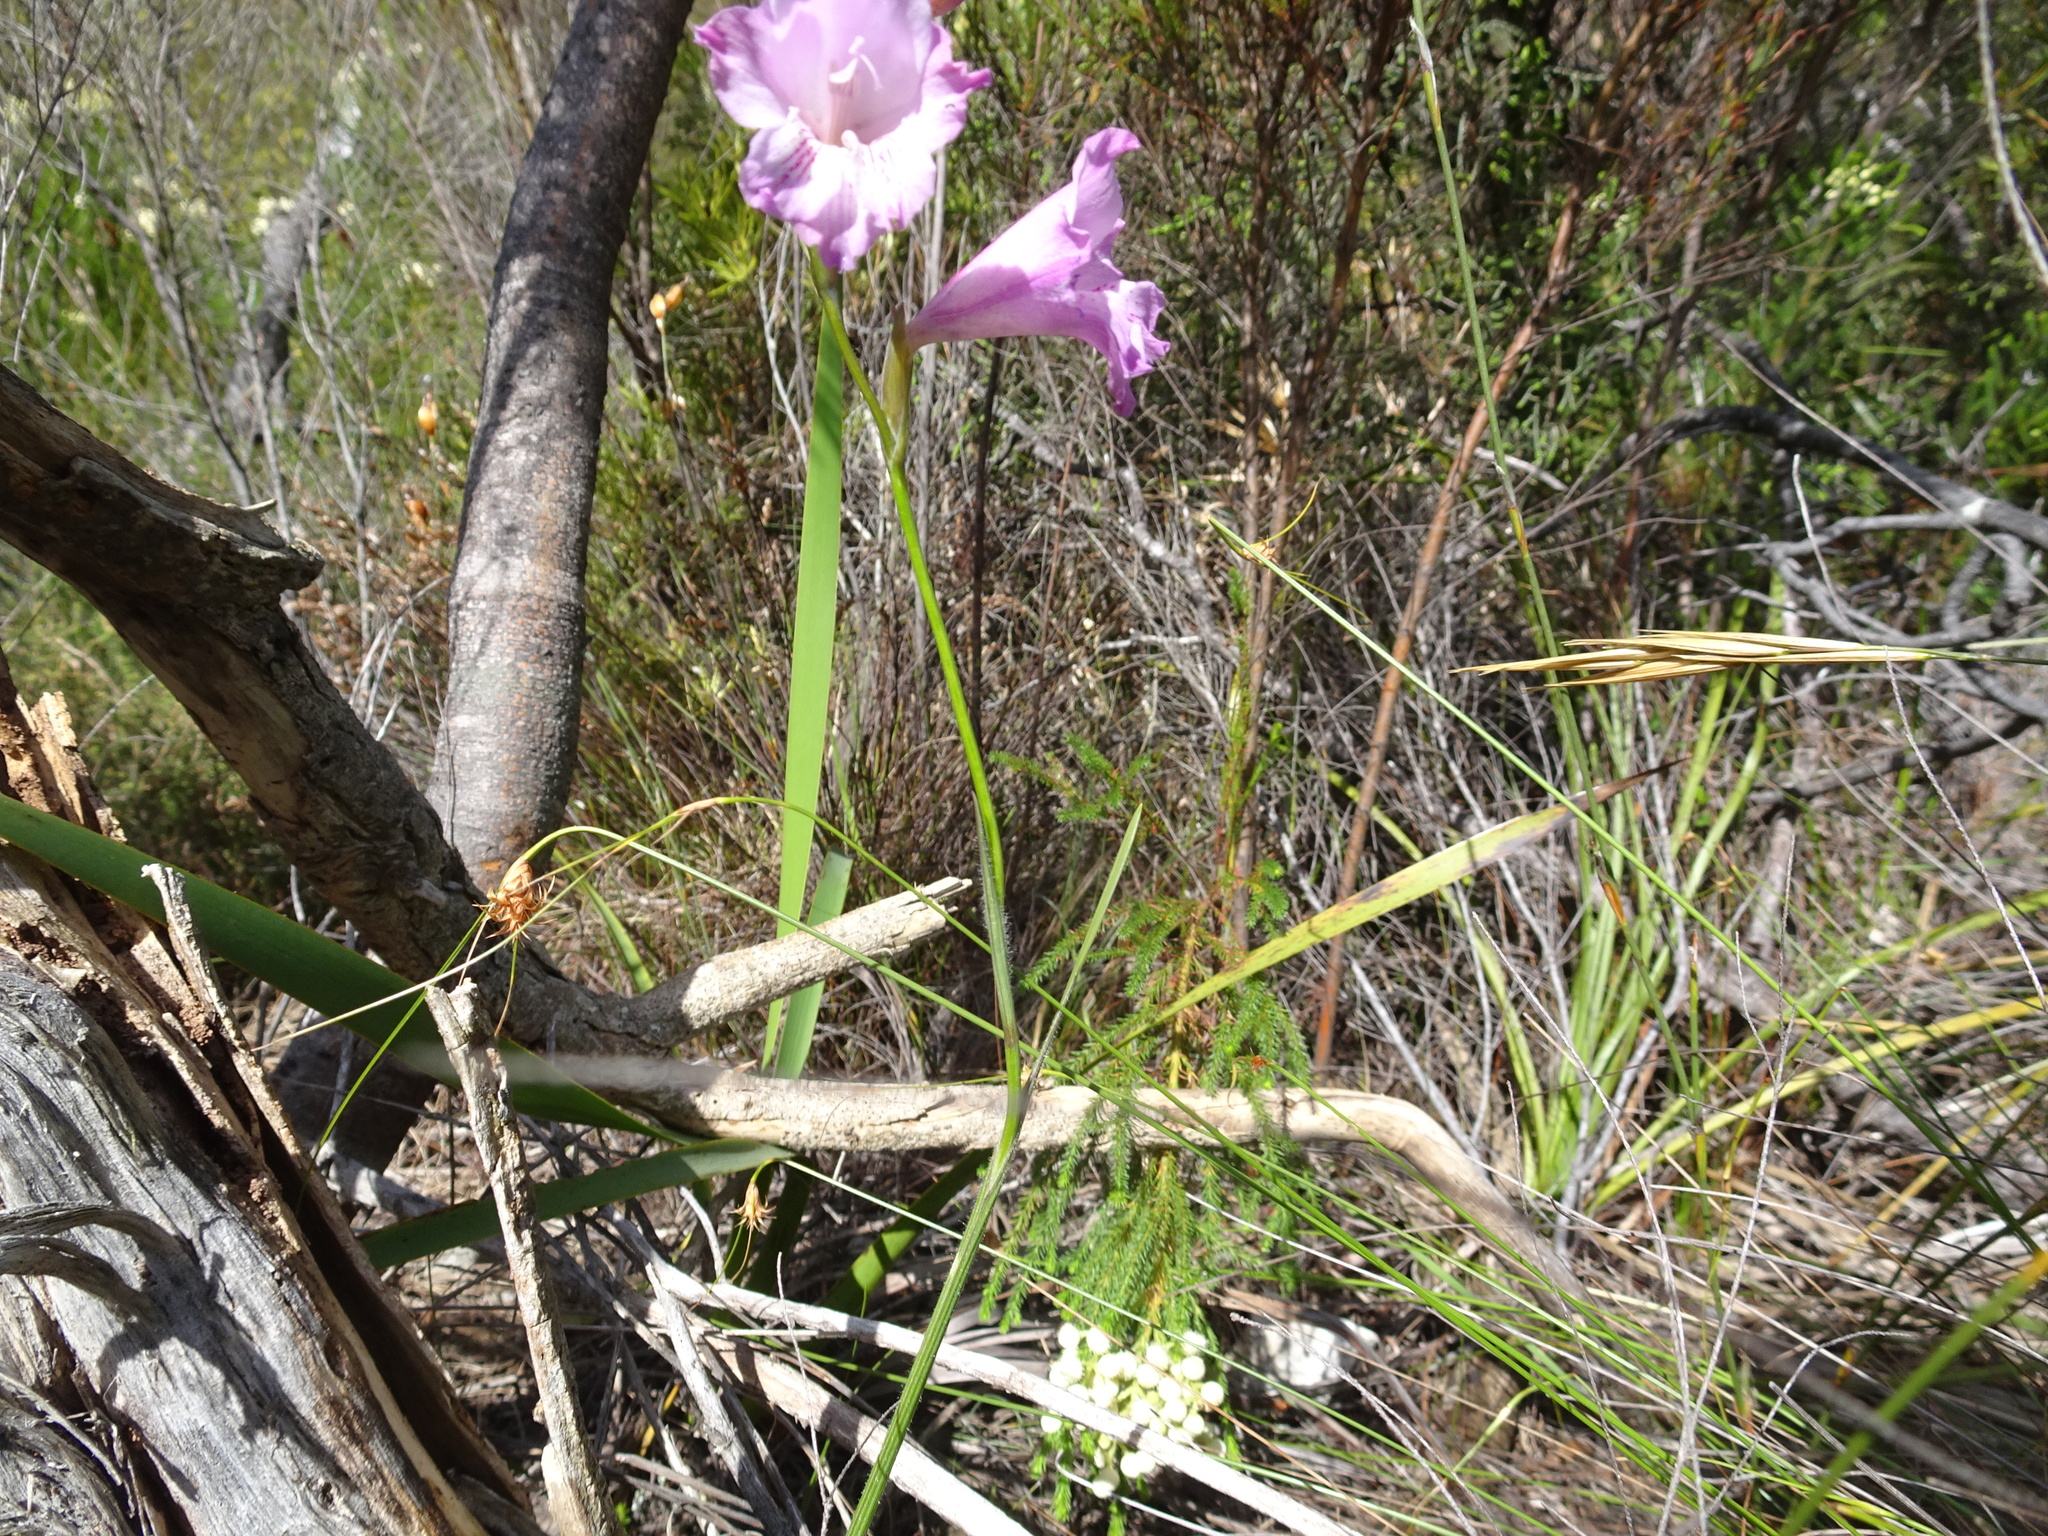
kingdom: Plantae
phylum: Tracheophyta
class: Liliopsida
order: Asparagales
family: Iridaceae
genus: Gladiolus
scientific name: Gladiolus hirsutus
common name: Small pink afrikaner
